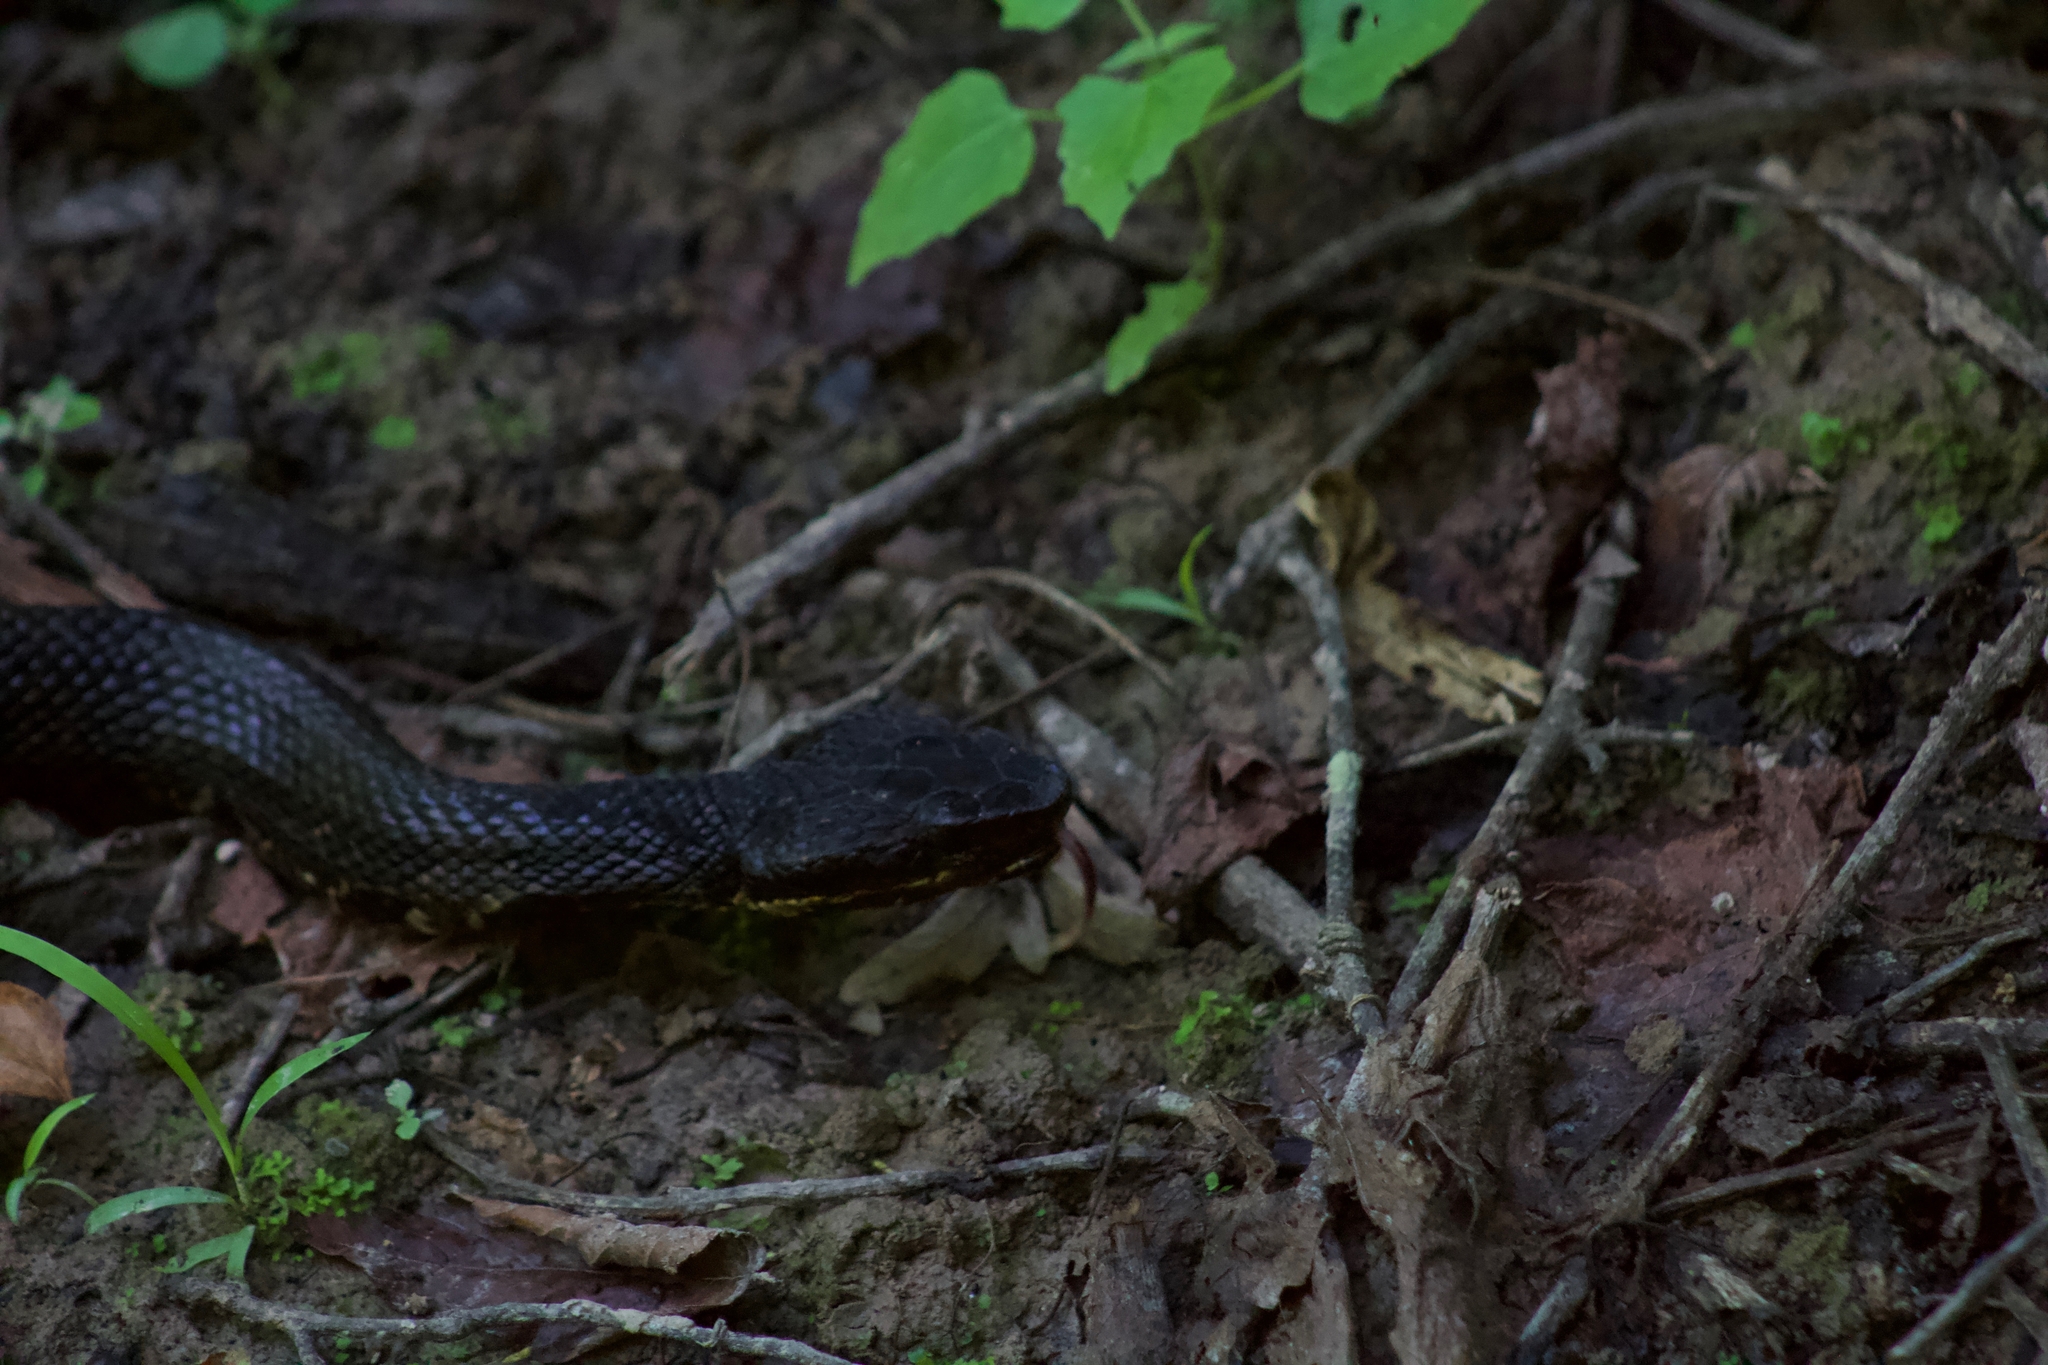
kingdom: Animalia
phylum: Chordata
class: Squamata
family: Viperidae
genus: Agkistrodon
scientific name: Agkistrodon piscivorus
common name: Cottonmouth
